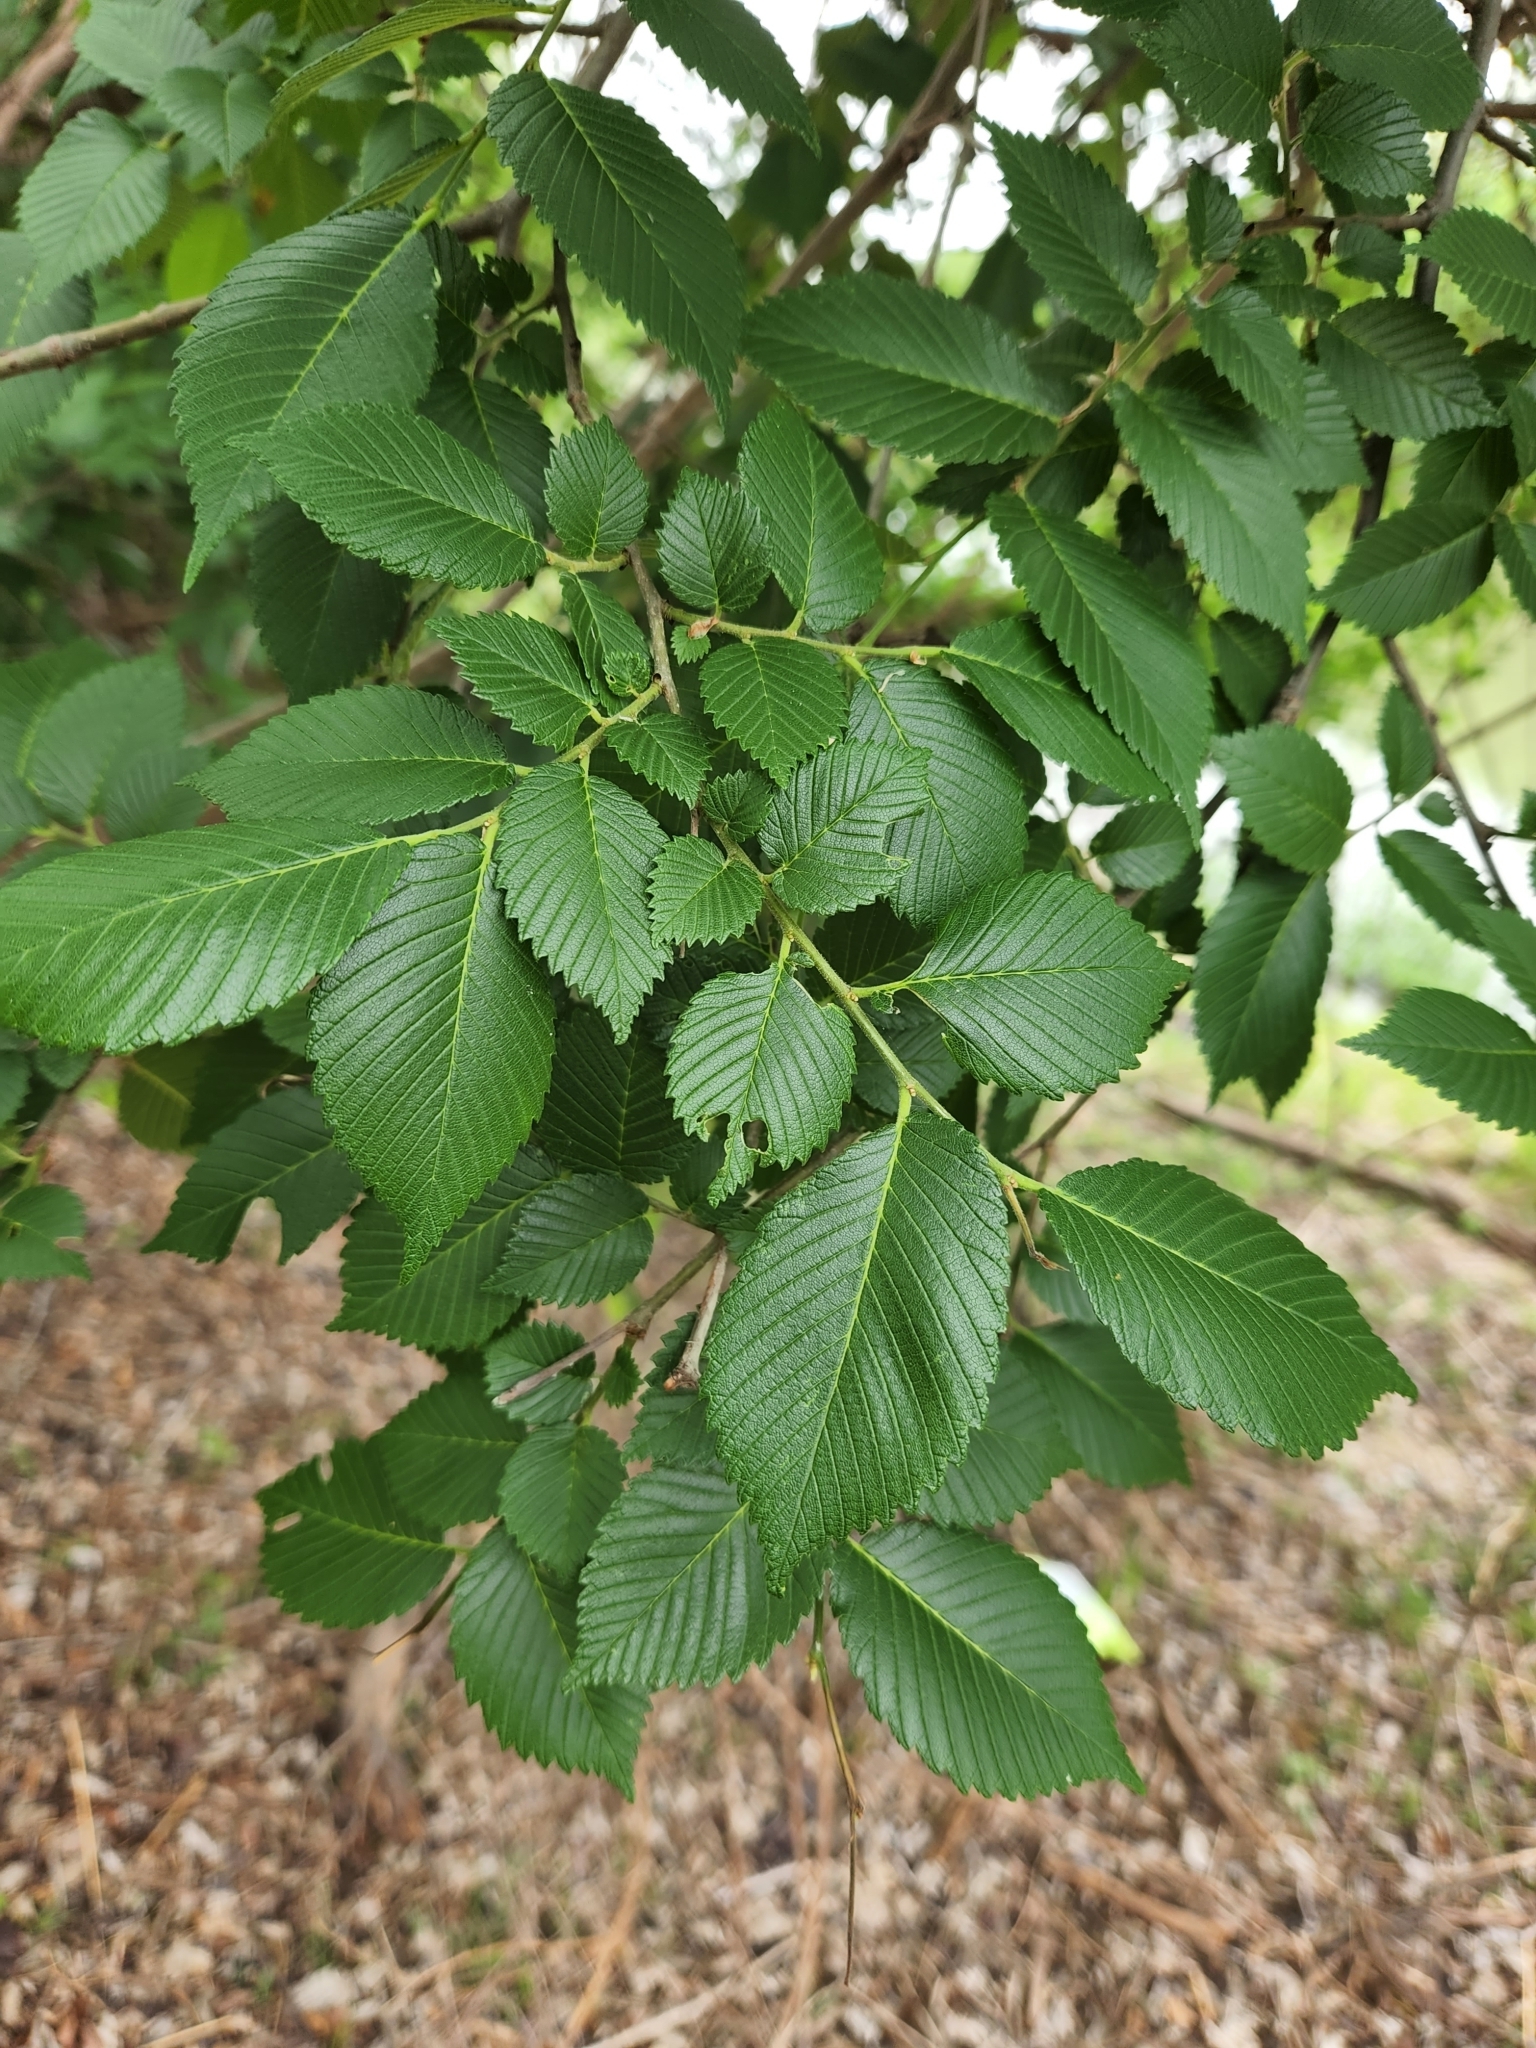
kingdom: Plantae
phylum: Tracheophyta
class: Magnoliopsida
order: Rosales
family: Ulmaceae
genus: Ulmus
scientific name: Ulmus americana
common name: American elm
